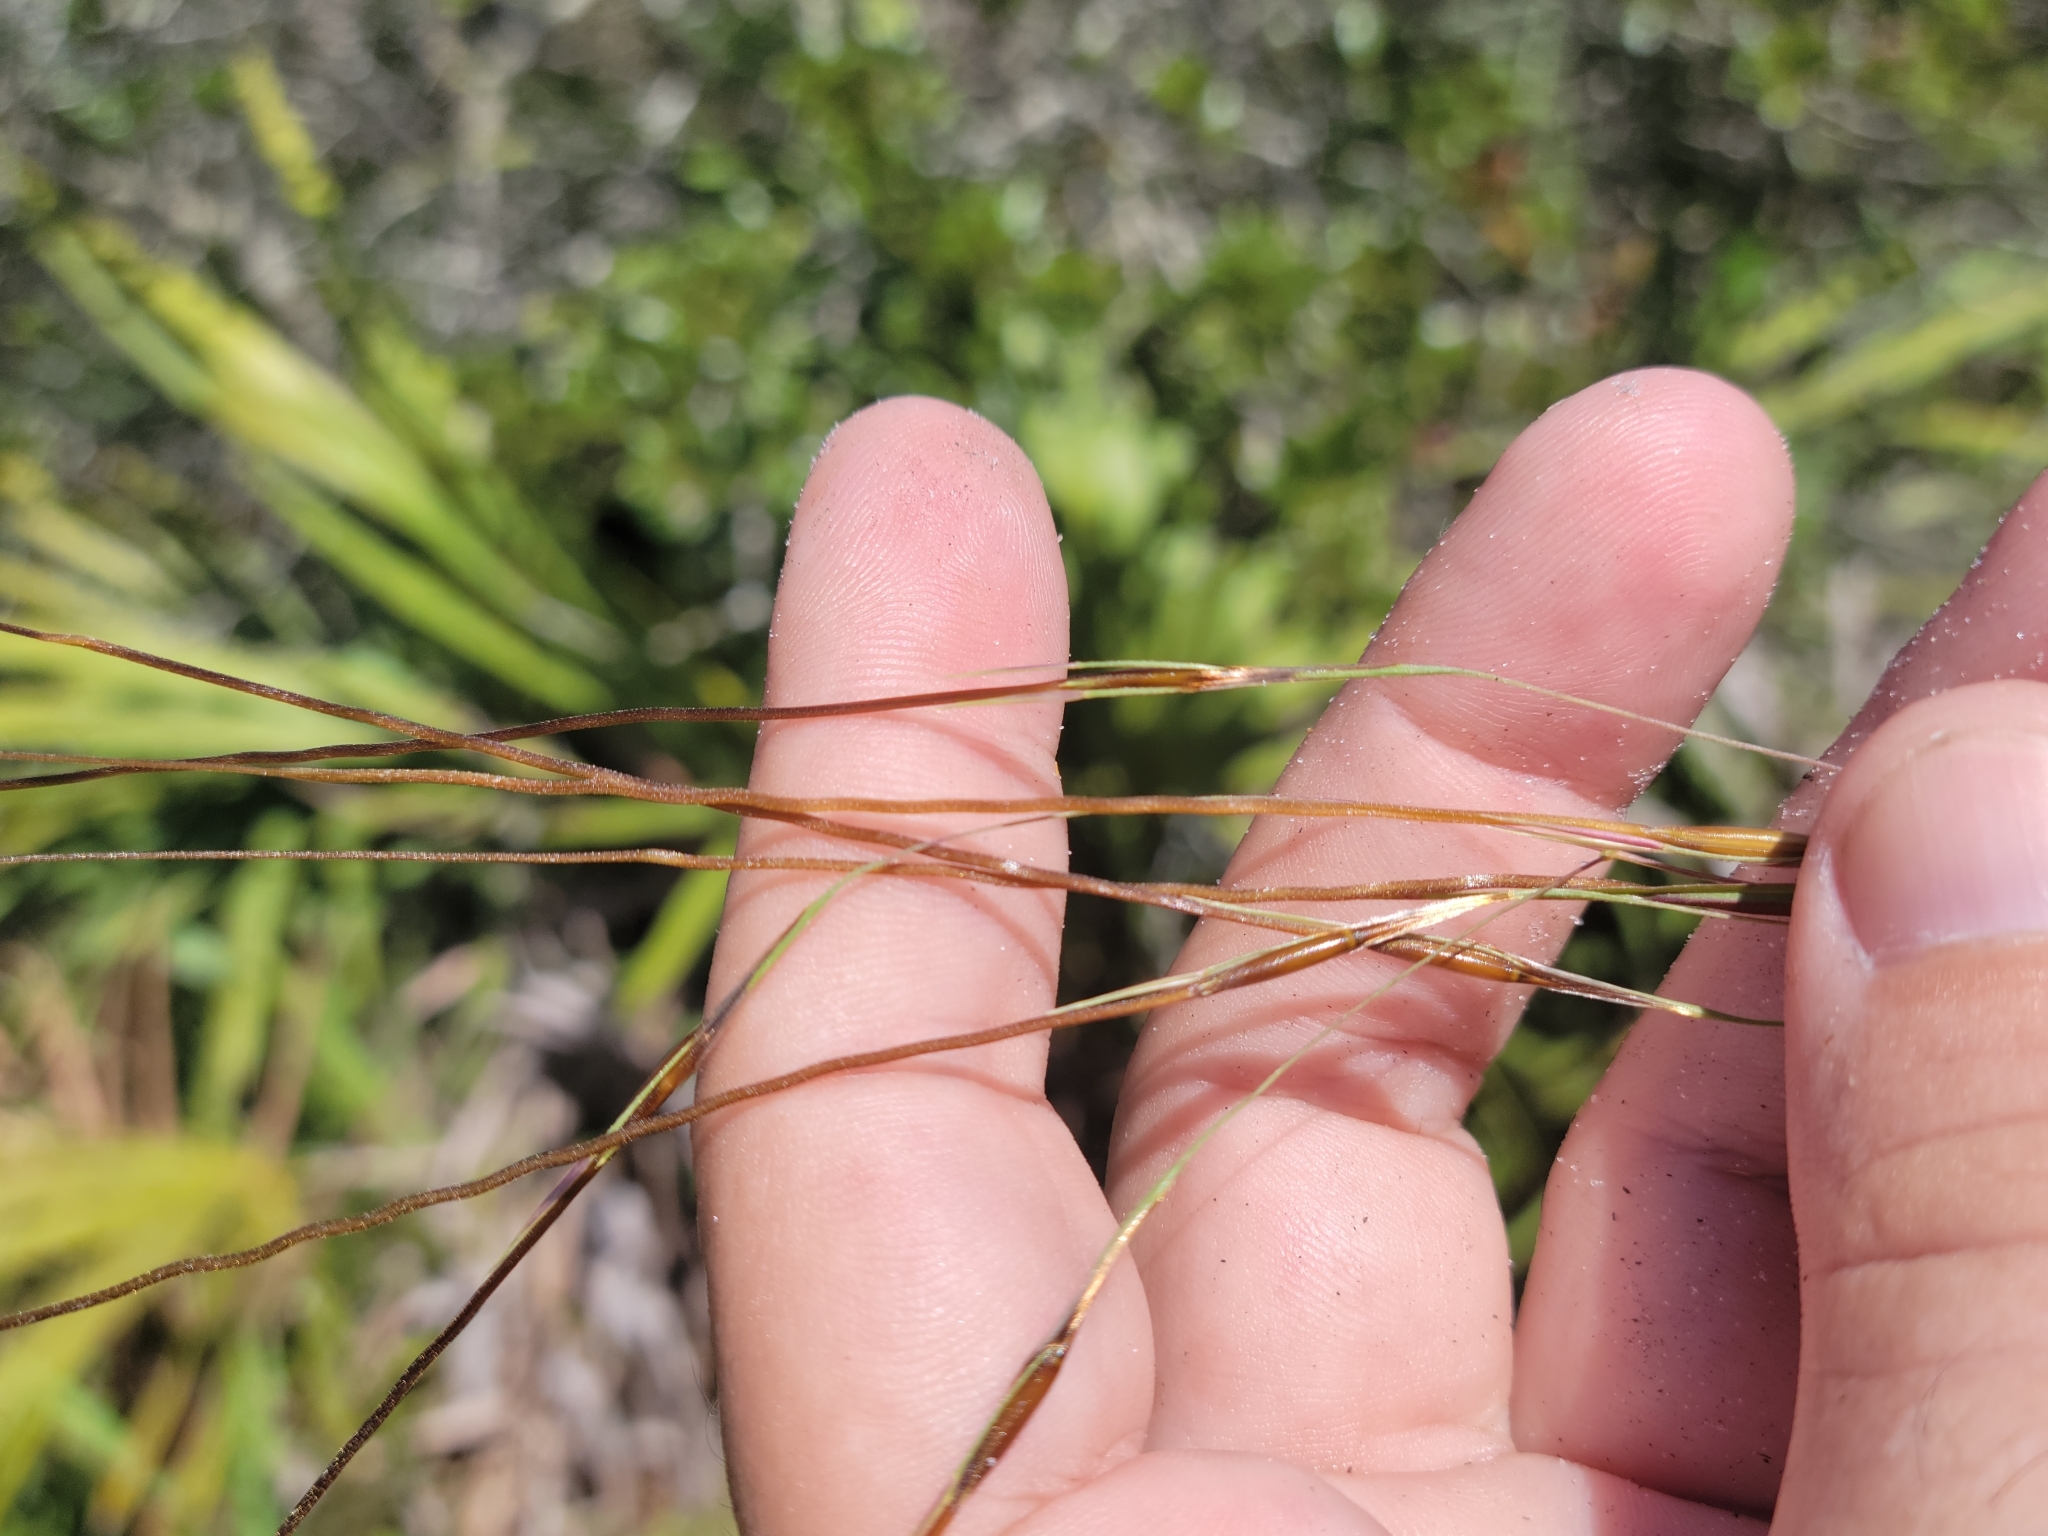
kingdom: Plantae
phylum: Tracheophyta
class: Liliopsida
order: Poales
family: Poaceae
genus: Chrysopogon
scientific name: Chrysopogon pauciflorus
